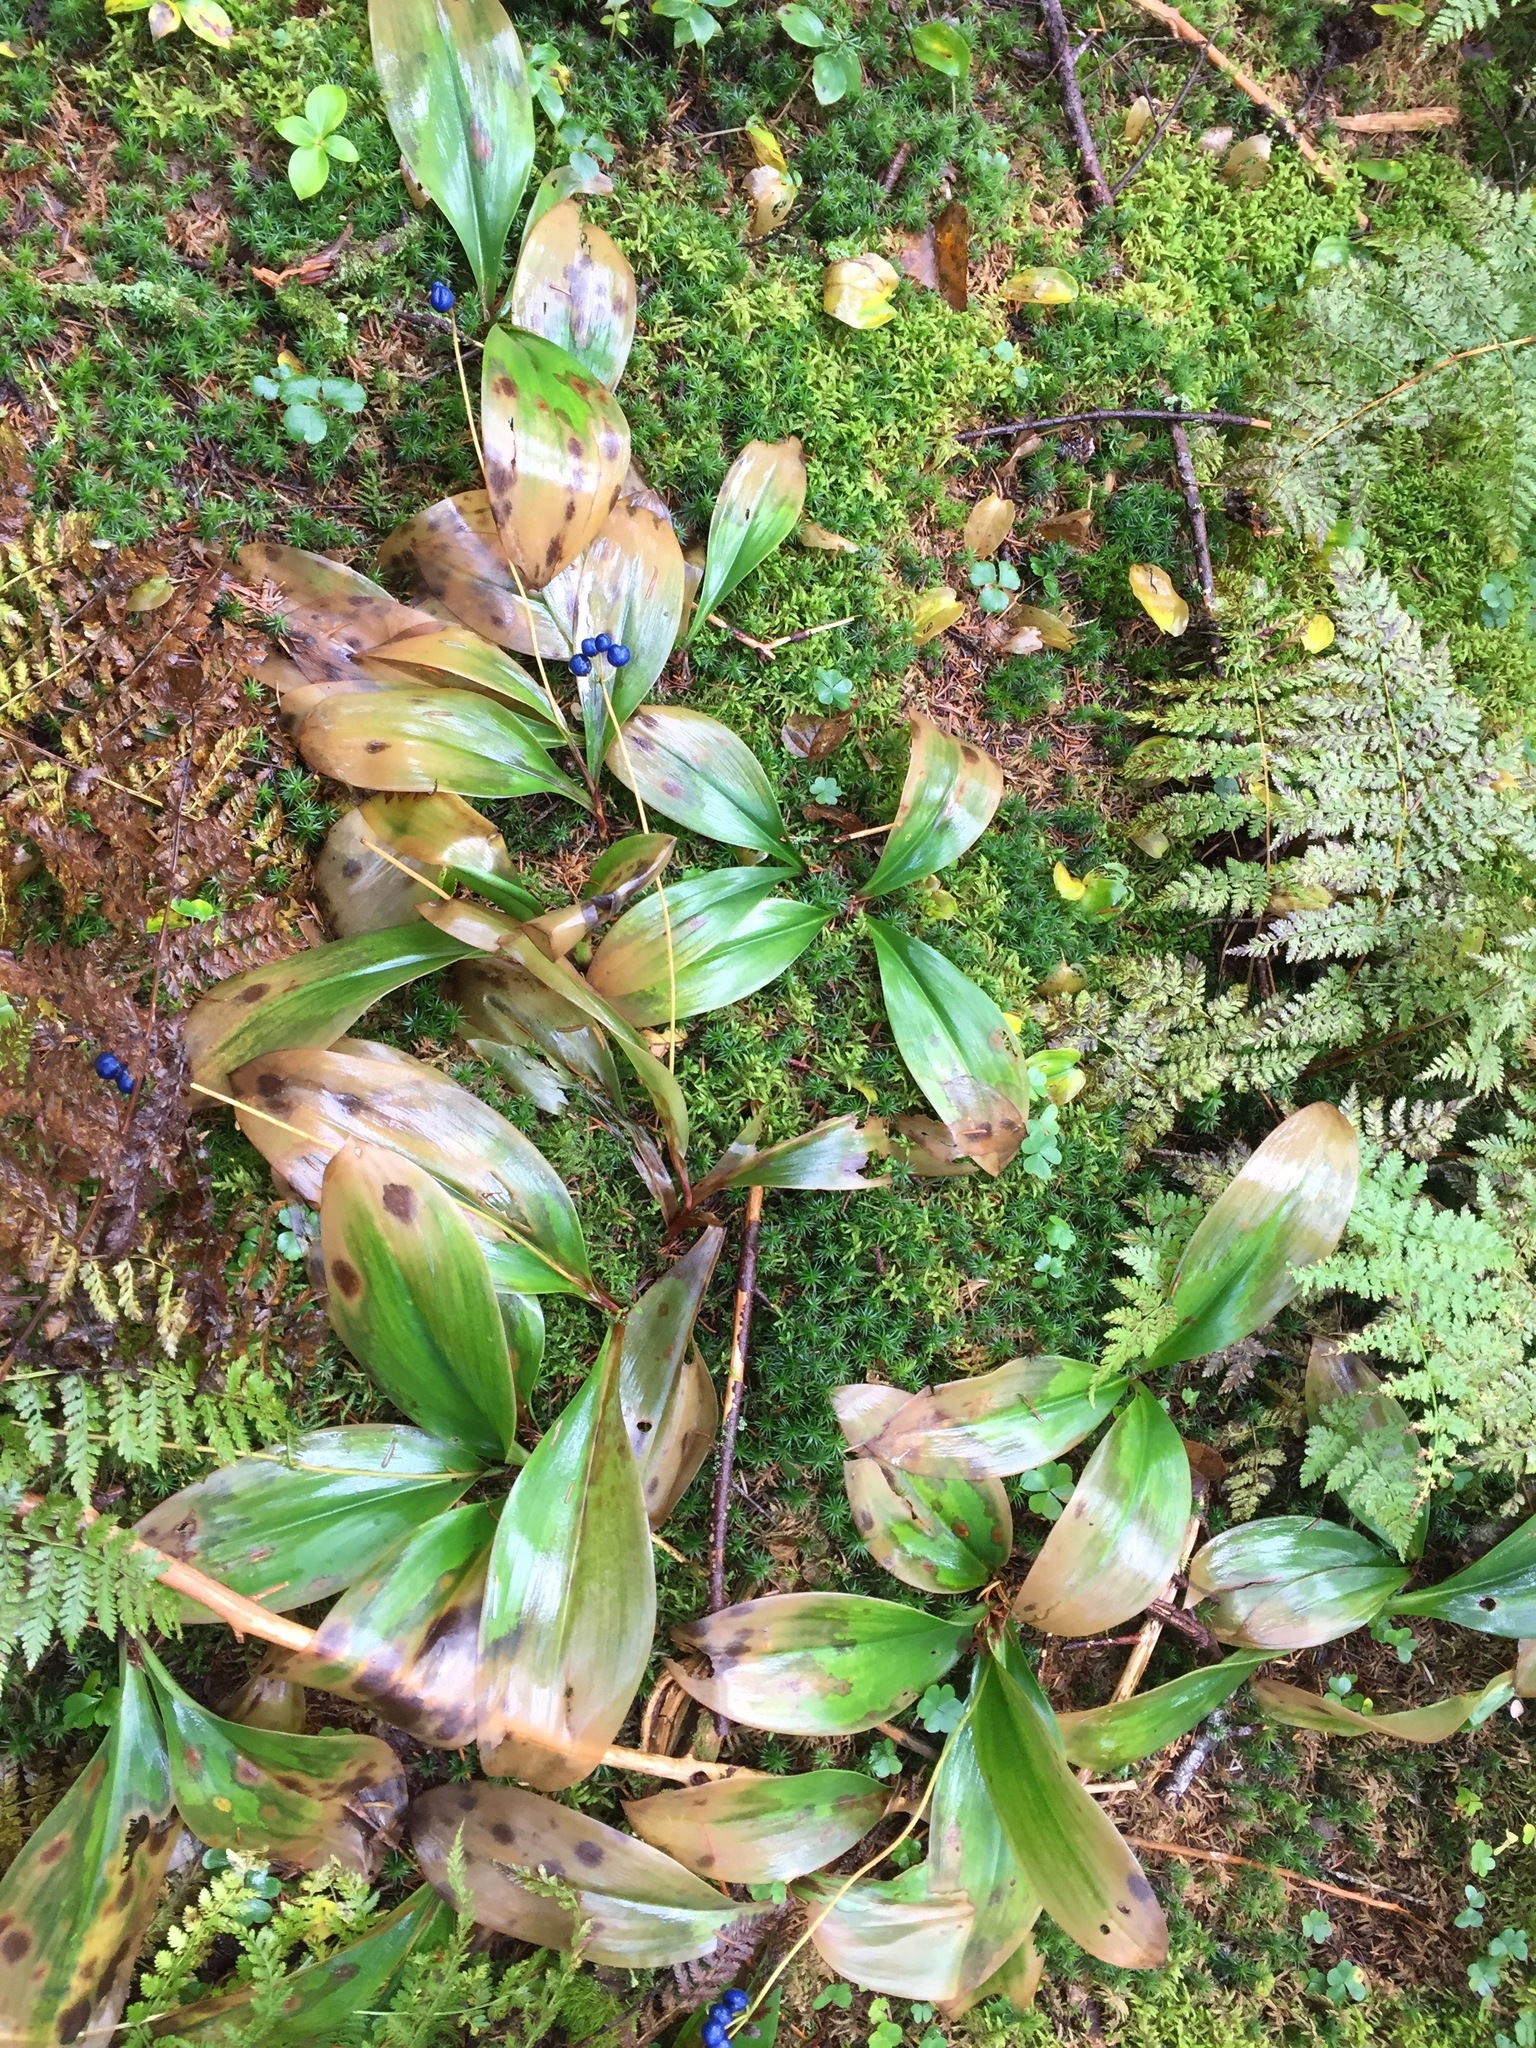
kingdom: Plantae
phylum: Tracheophyta
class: Liliopsida
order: Liliales
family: Liliaceae
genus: Clintonia
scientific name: Clintonia borealis
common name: Yellow clintonia
